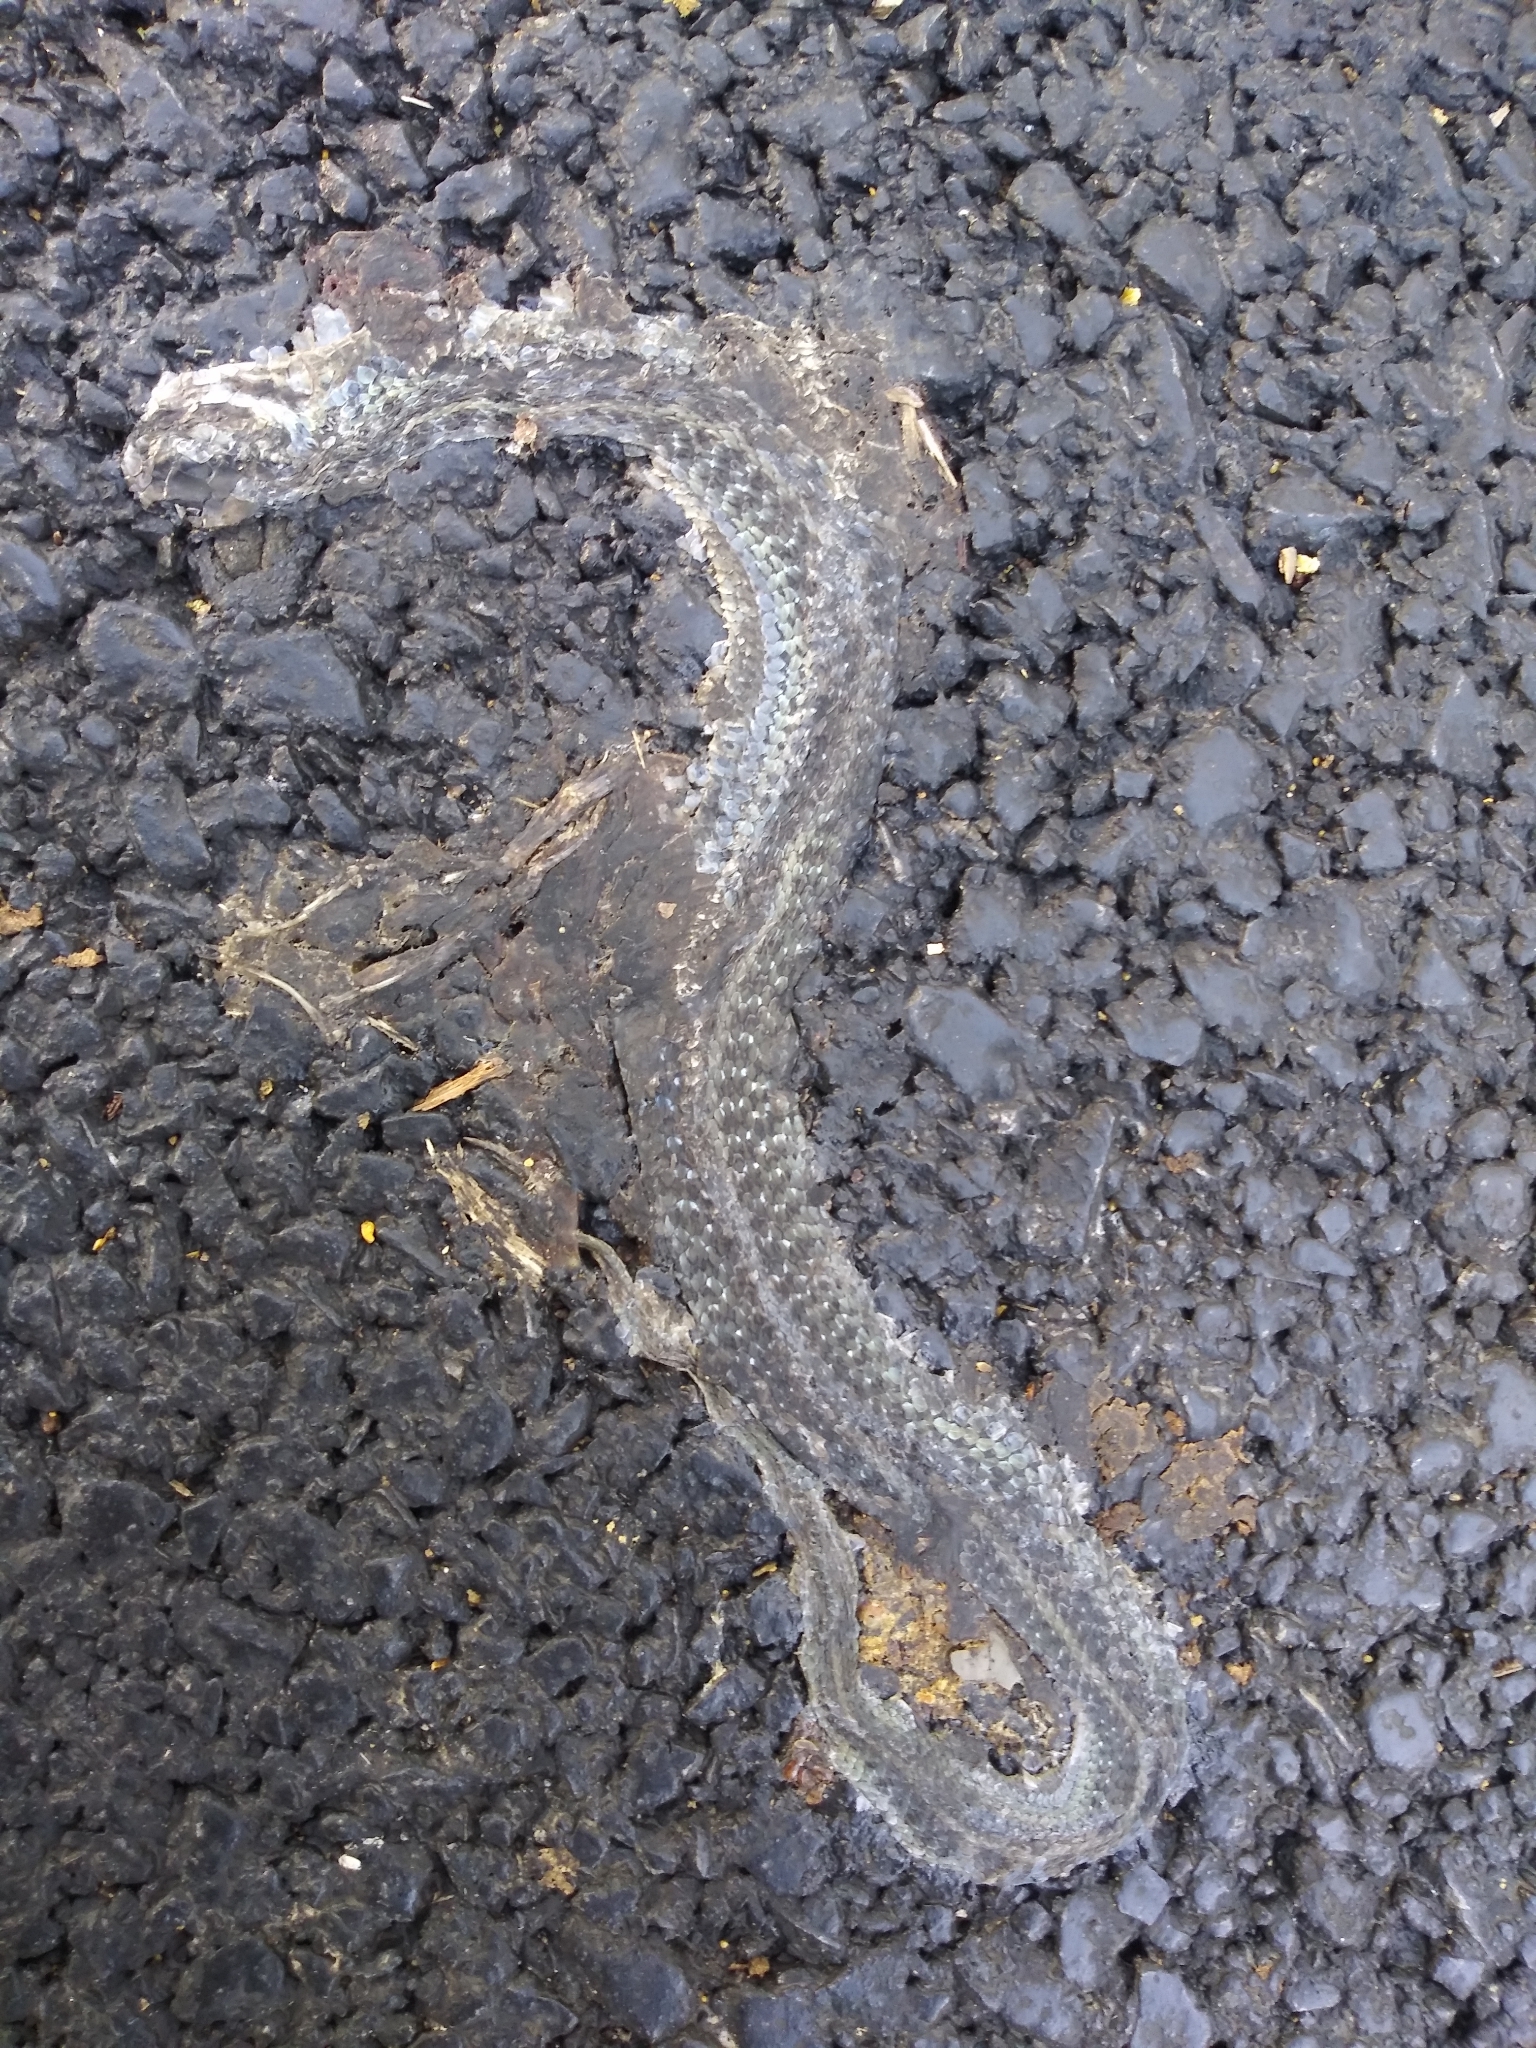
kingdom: Animalia
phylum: Chordata
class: Squamata
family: Colubridae
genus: Thamnophis
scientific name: Thamnophis sirtalis
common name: Common garter snake
